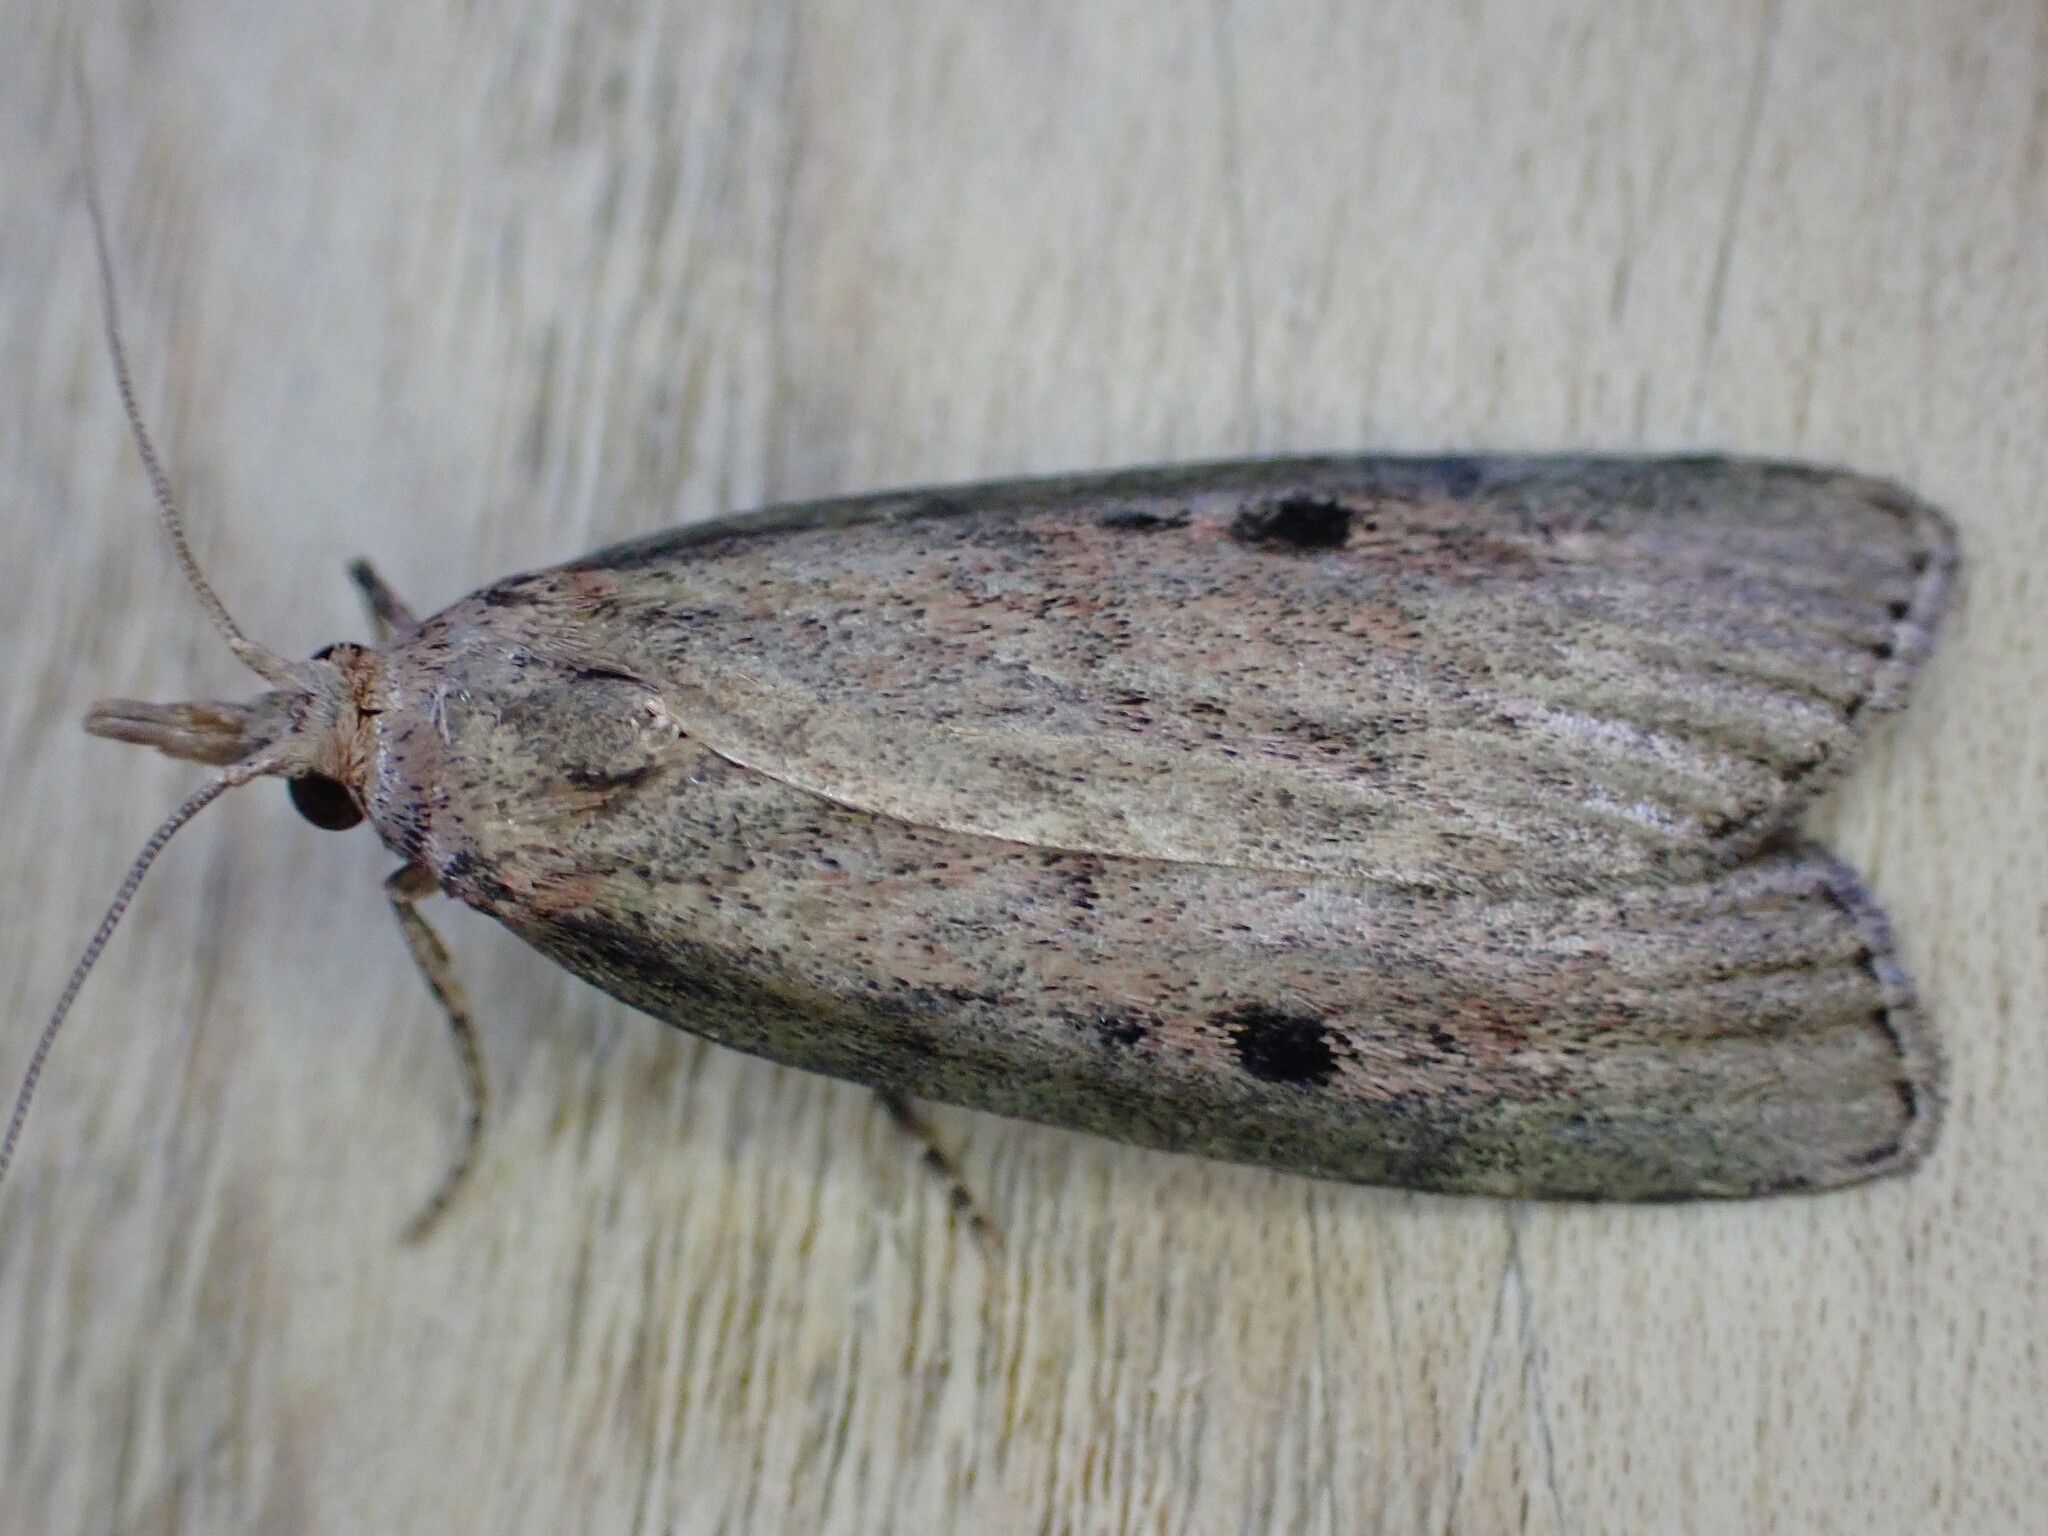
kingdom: Animalia
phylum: Arthropoda
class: Insecta
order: Lepidoptera
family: Pyralidae
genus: Aphomia
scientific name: Aphomia sociella
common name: Bee moth
